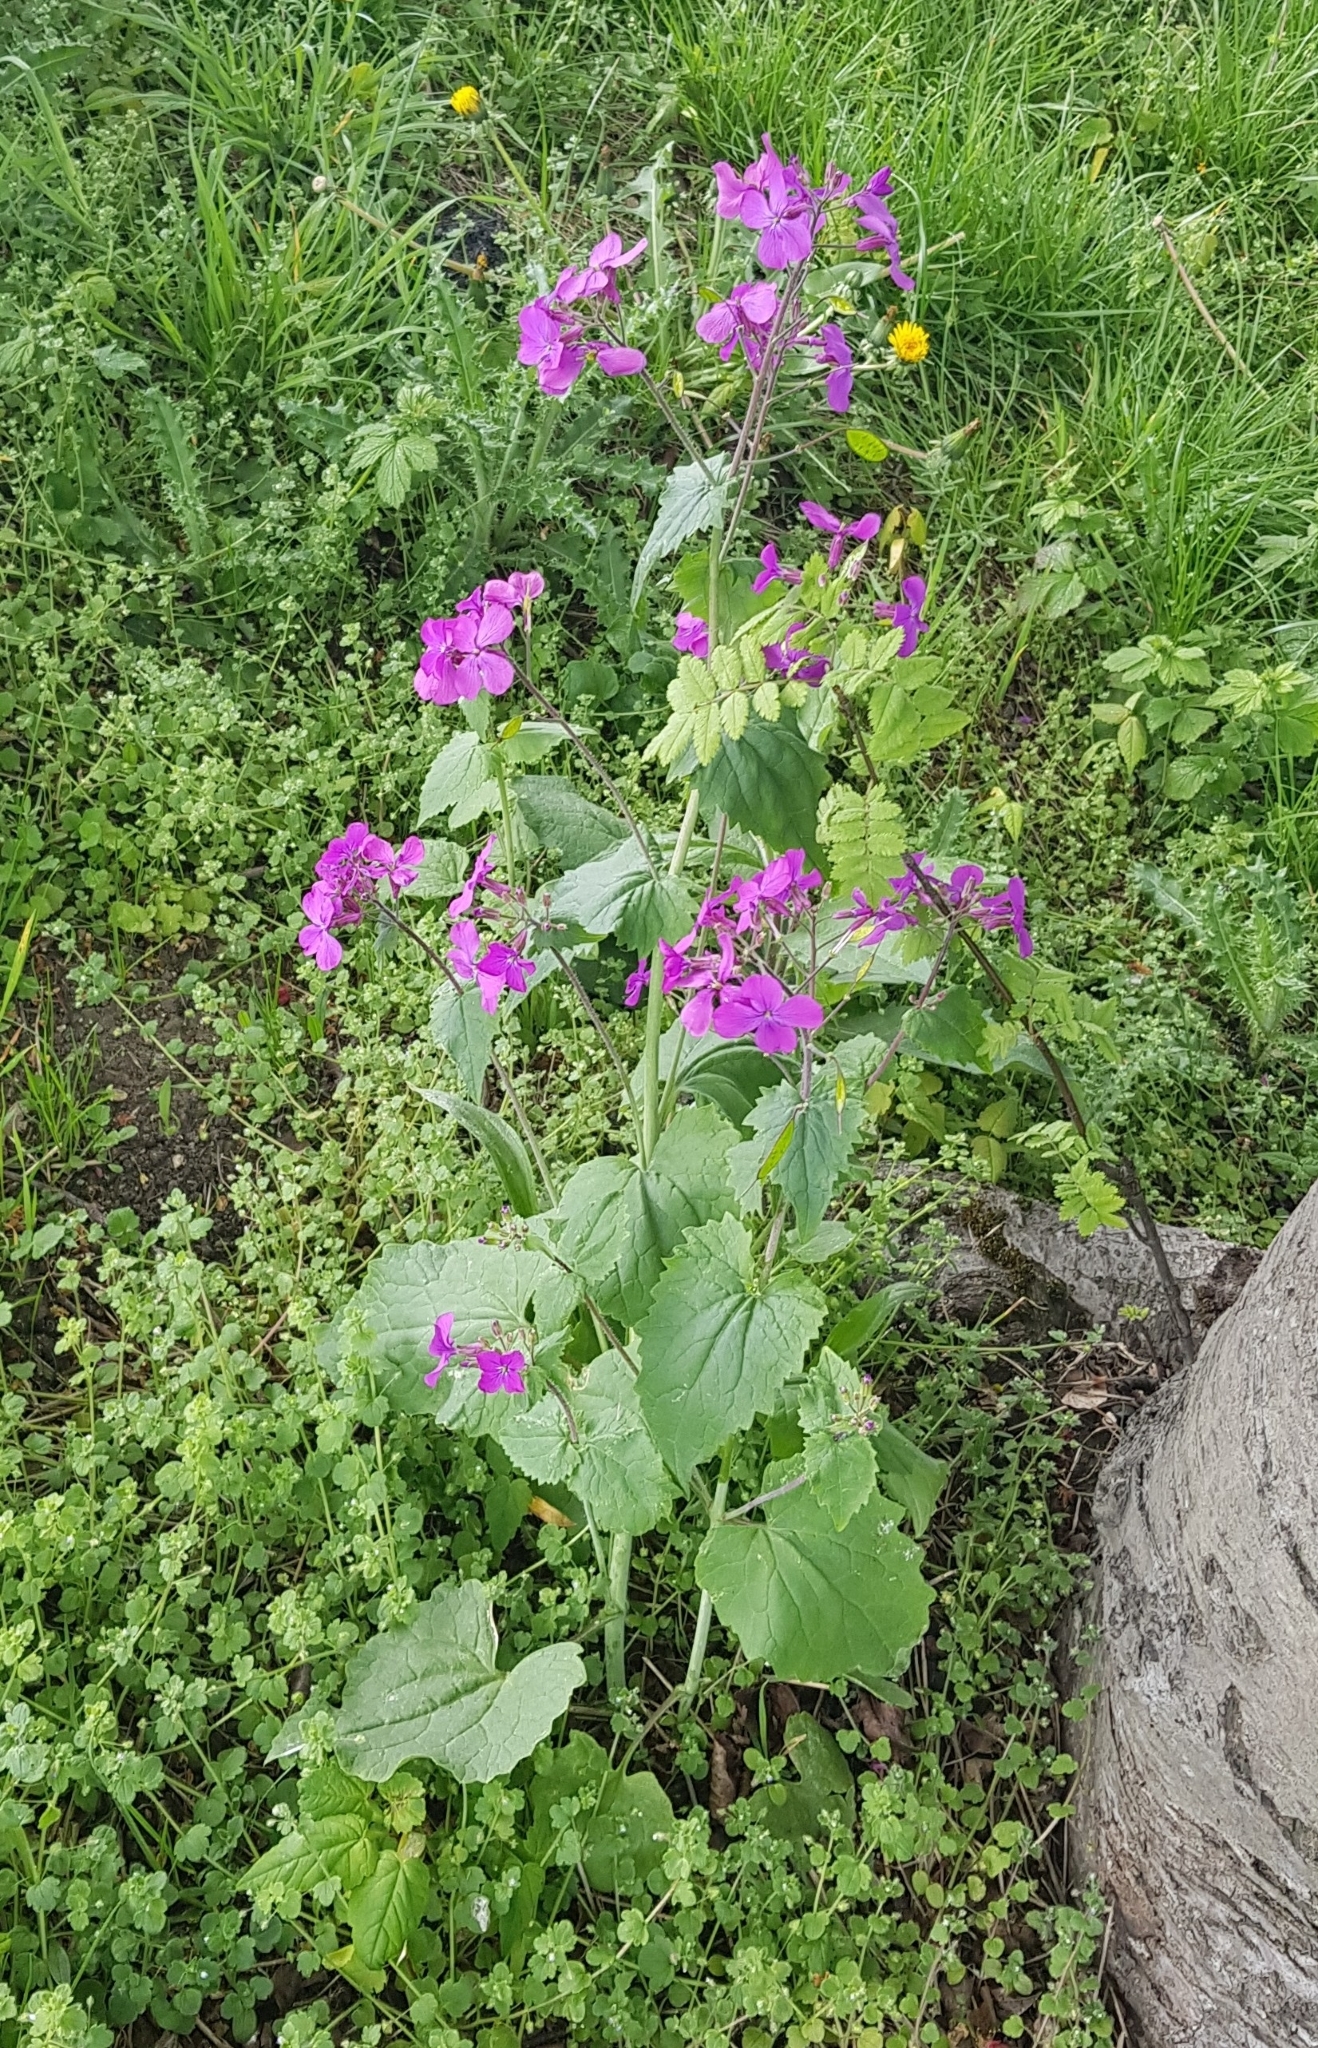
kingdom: Plantae
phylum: Tracheophyta
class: Magnoliopsida
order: Brassicales
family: Brassicaceae
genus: Lunaria
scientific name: Lunaria annua
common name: Honesty
